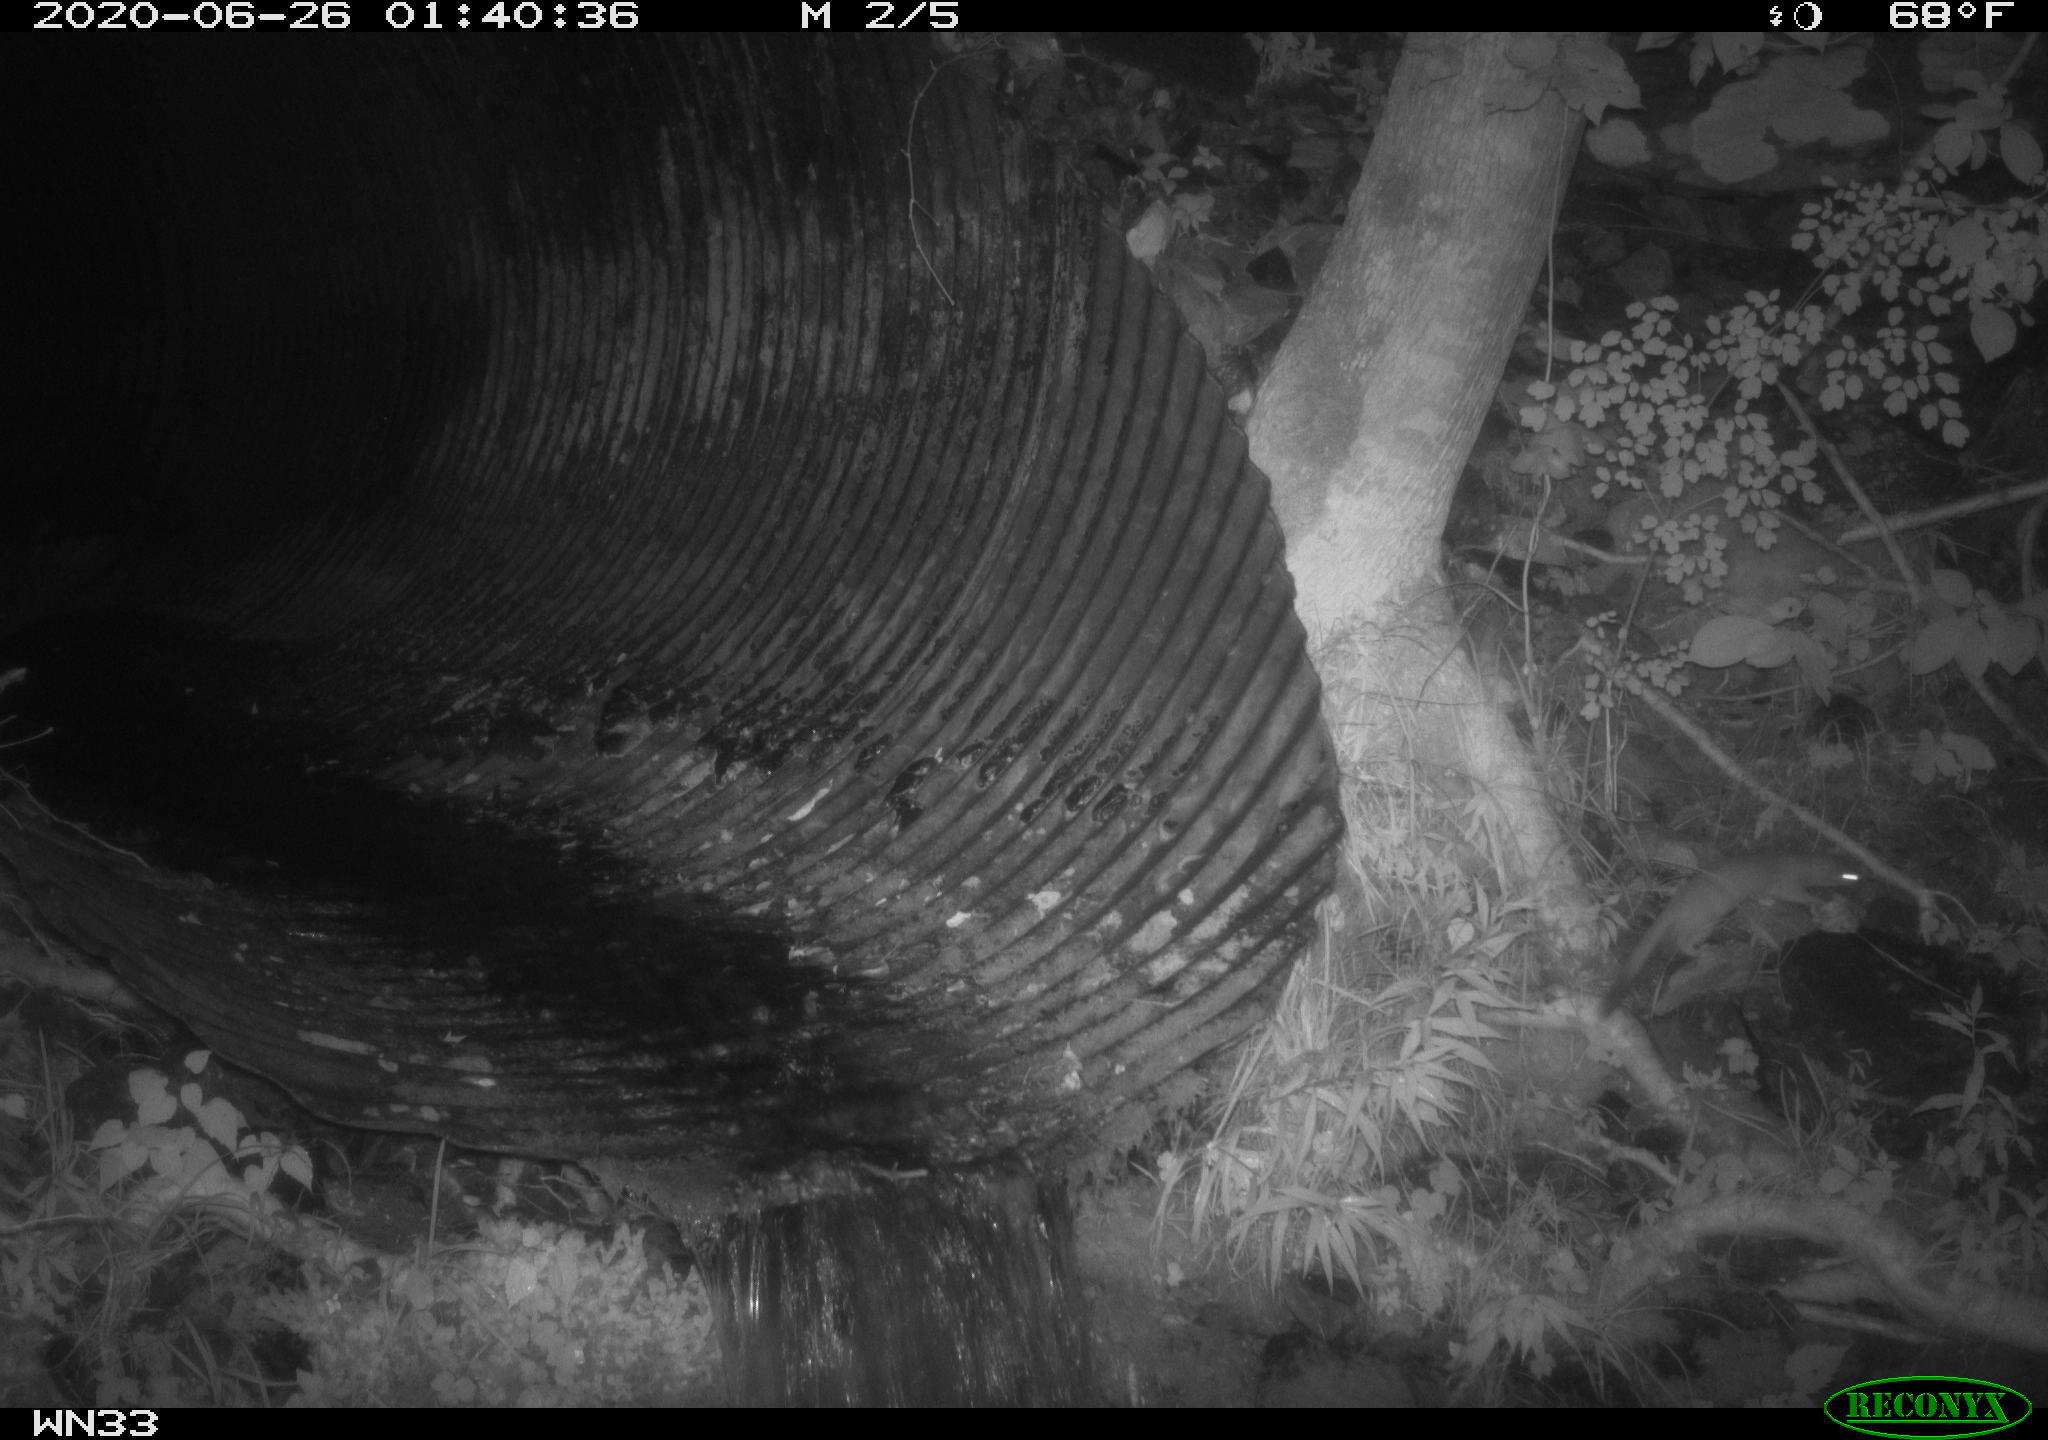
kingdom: Animalia
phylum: Chordata
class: Mammalia
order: Carnivora
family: Mustelidae
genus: Mustela
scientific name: Mustela
